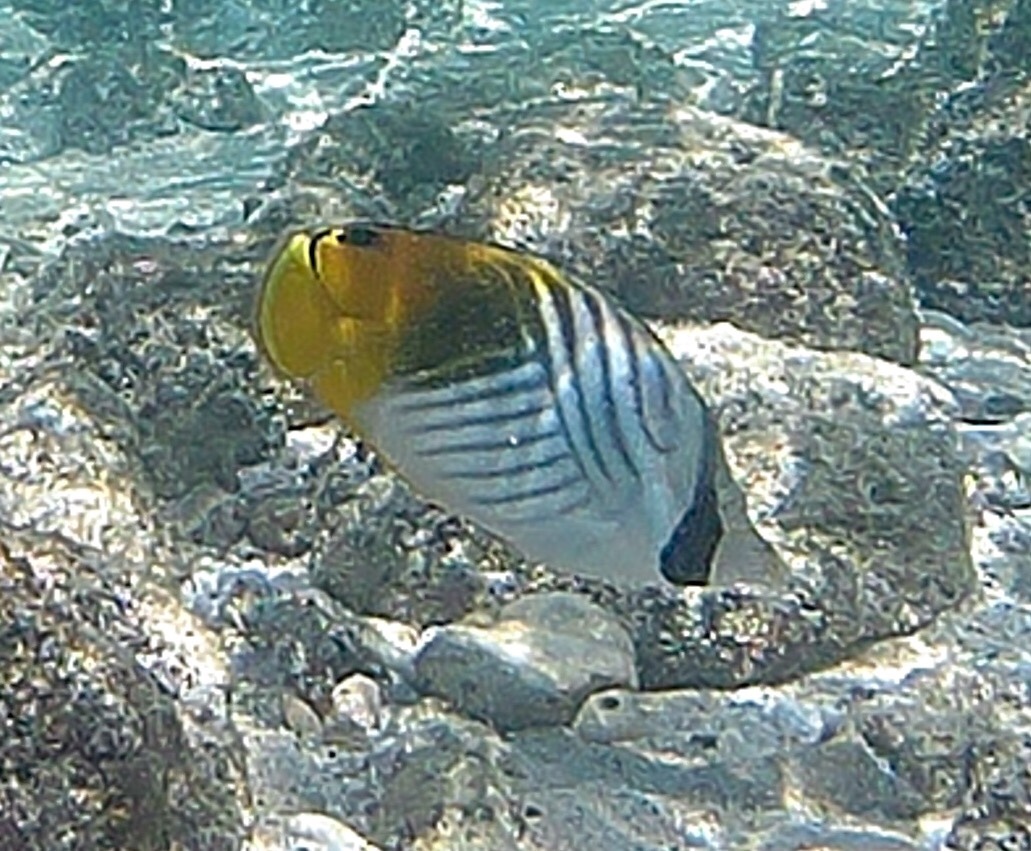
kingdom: Animalia
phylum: Chordata
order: Perciformes
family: Chaetodontidae
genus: Chaetodon
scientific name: Chaetodon auriga
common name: Threadfin butterflyfish
